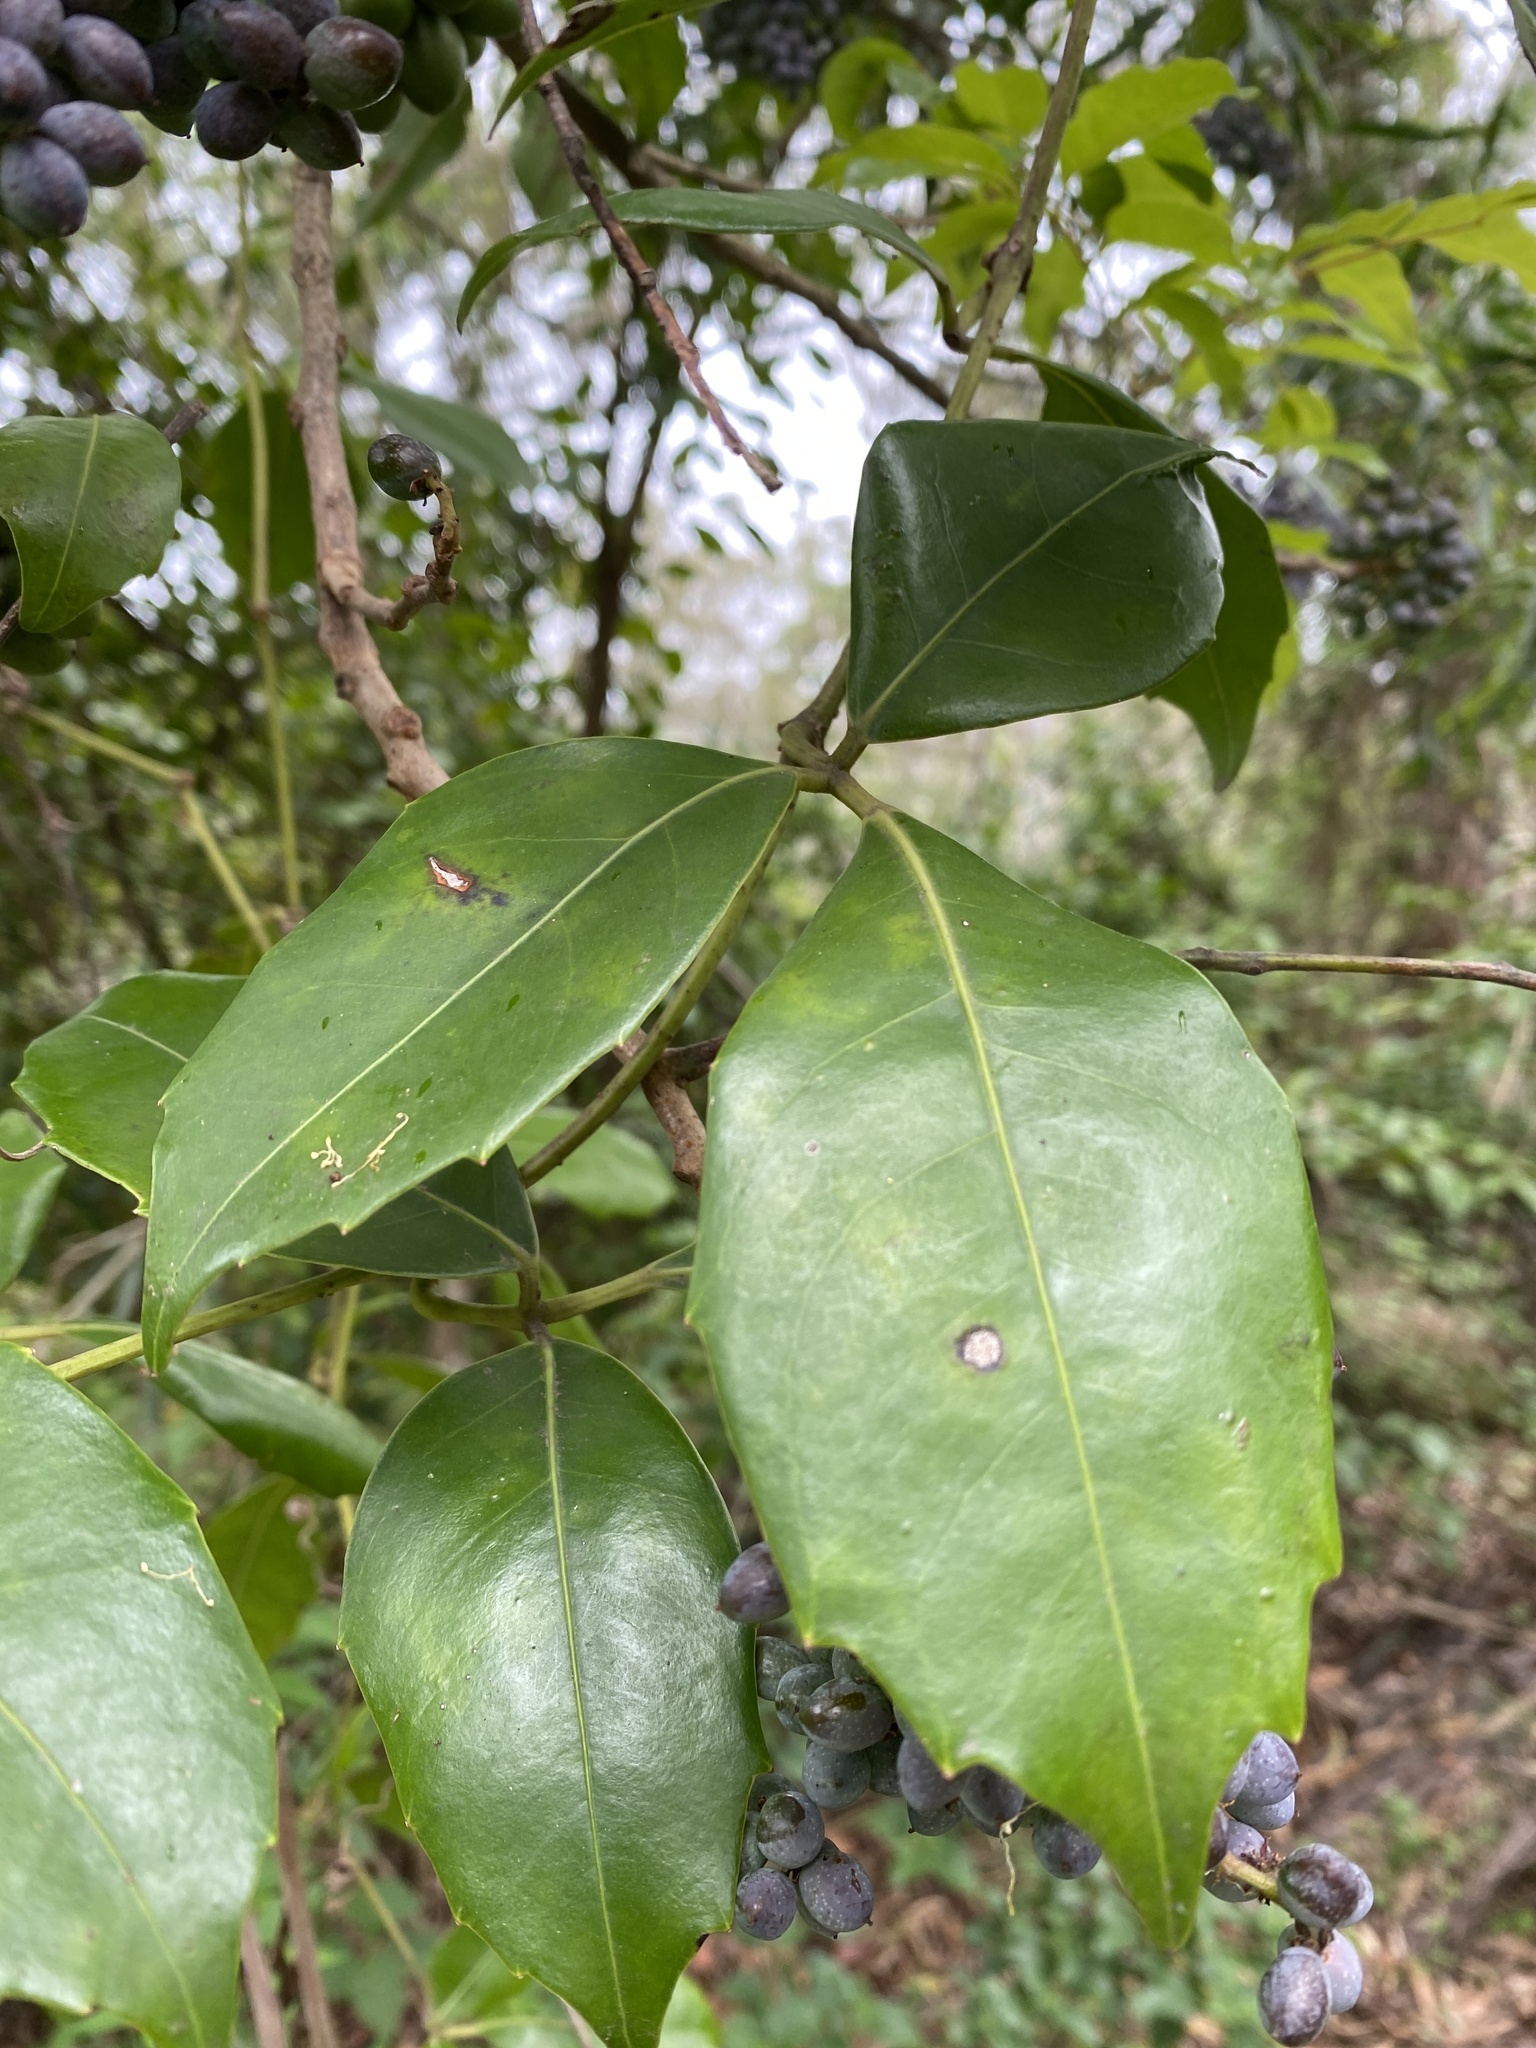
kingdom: Plantae
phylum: Tracheophyta
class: Magnoliopsida
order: Vitales
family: Vitaceae
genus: Tetrastigma
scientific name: Tetrastigma nitens
